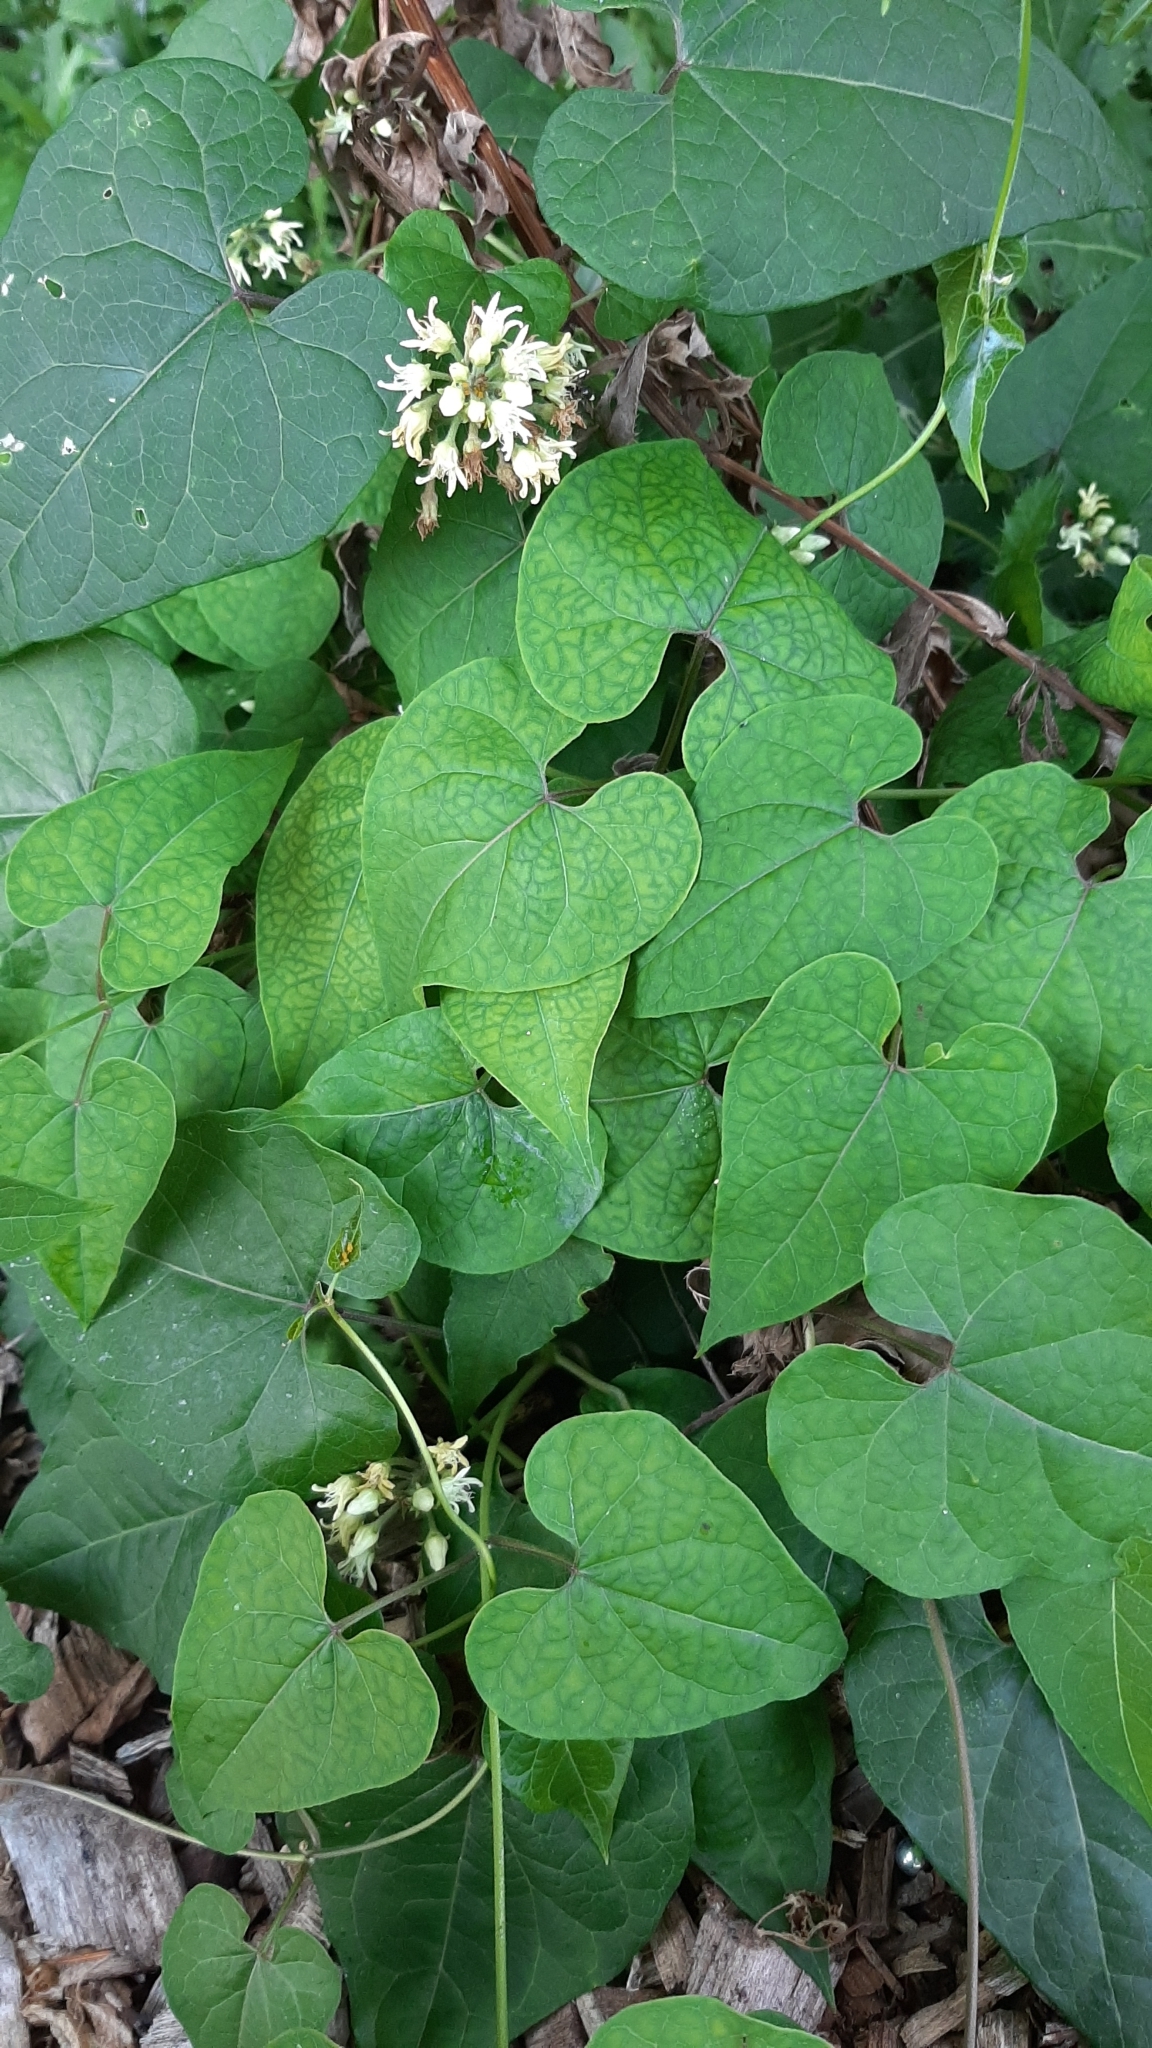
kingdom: Plantae
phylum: Tracheophyta
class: Magnoliopsida
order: Gentianales
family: Apocynaceae
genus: Cynanchum
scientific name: Cynanchum laeve
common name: Sandvine
